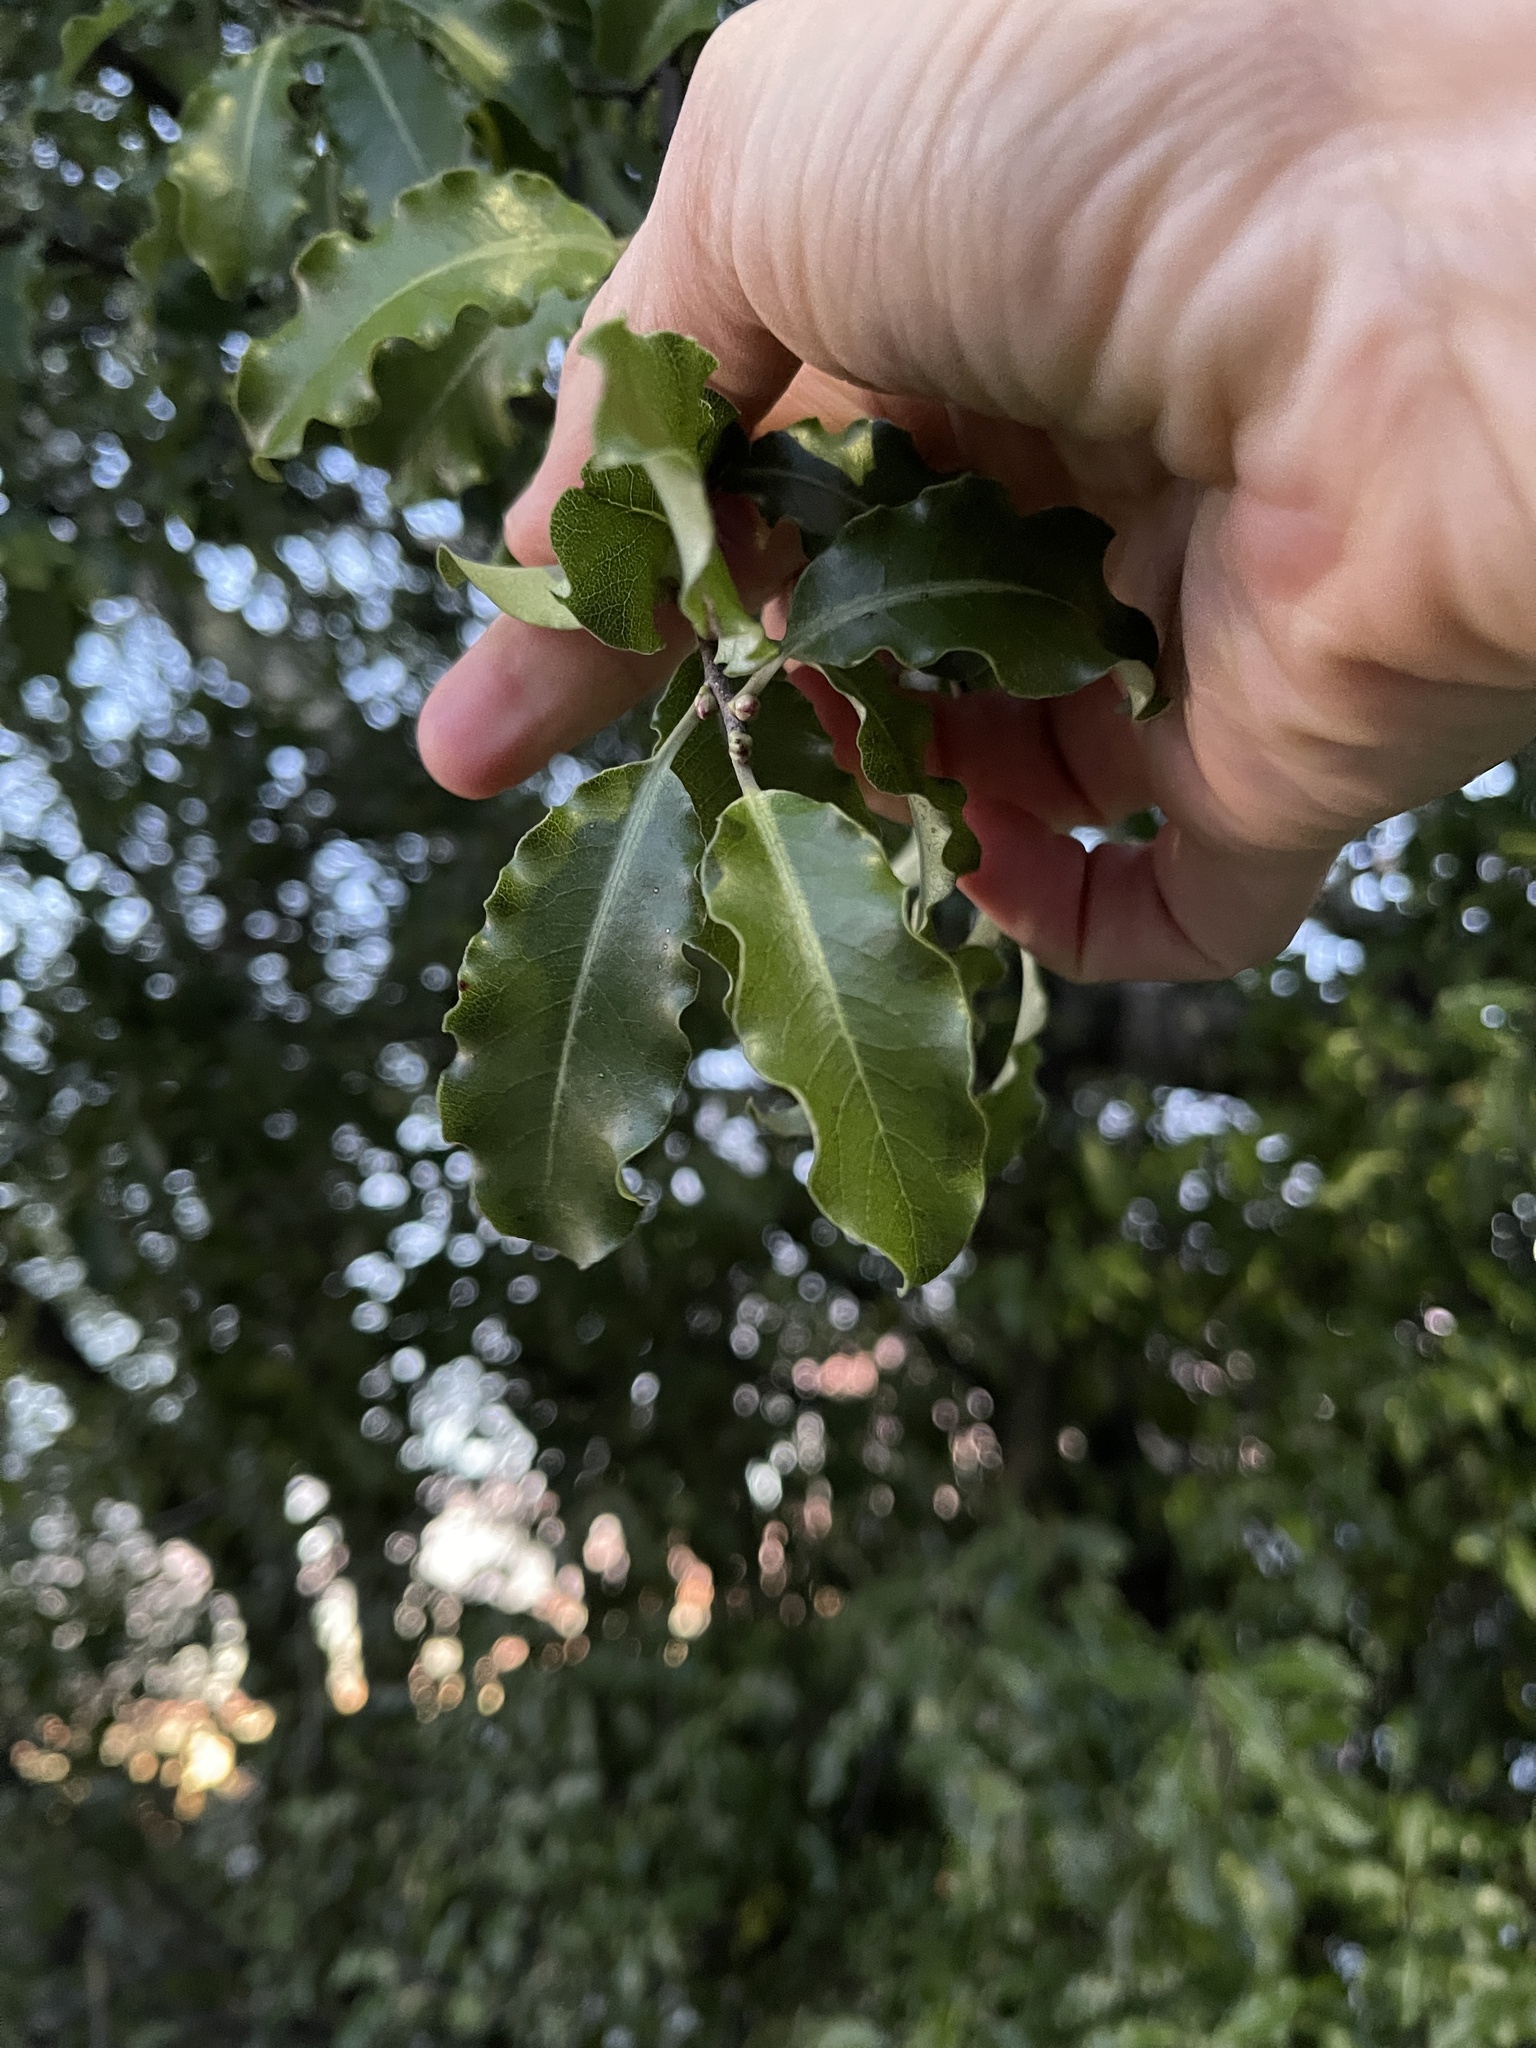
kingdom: Plantae
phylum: Tracheophyta
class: Magnoliopsida
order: Apiales
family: Pittosporaceae
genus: Pittosporum
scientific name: Pittosporum tenuifolium
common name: Kohuhu
